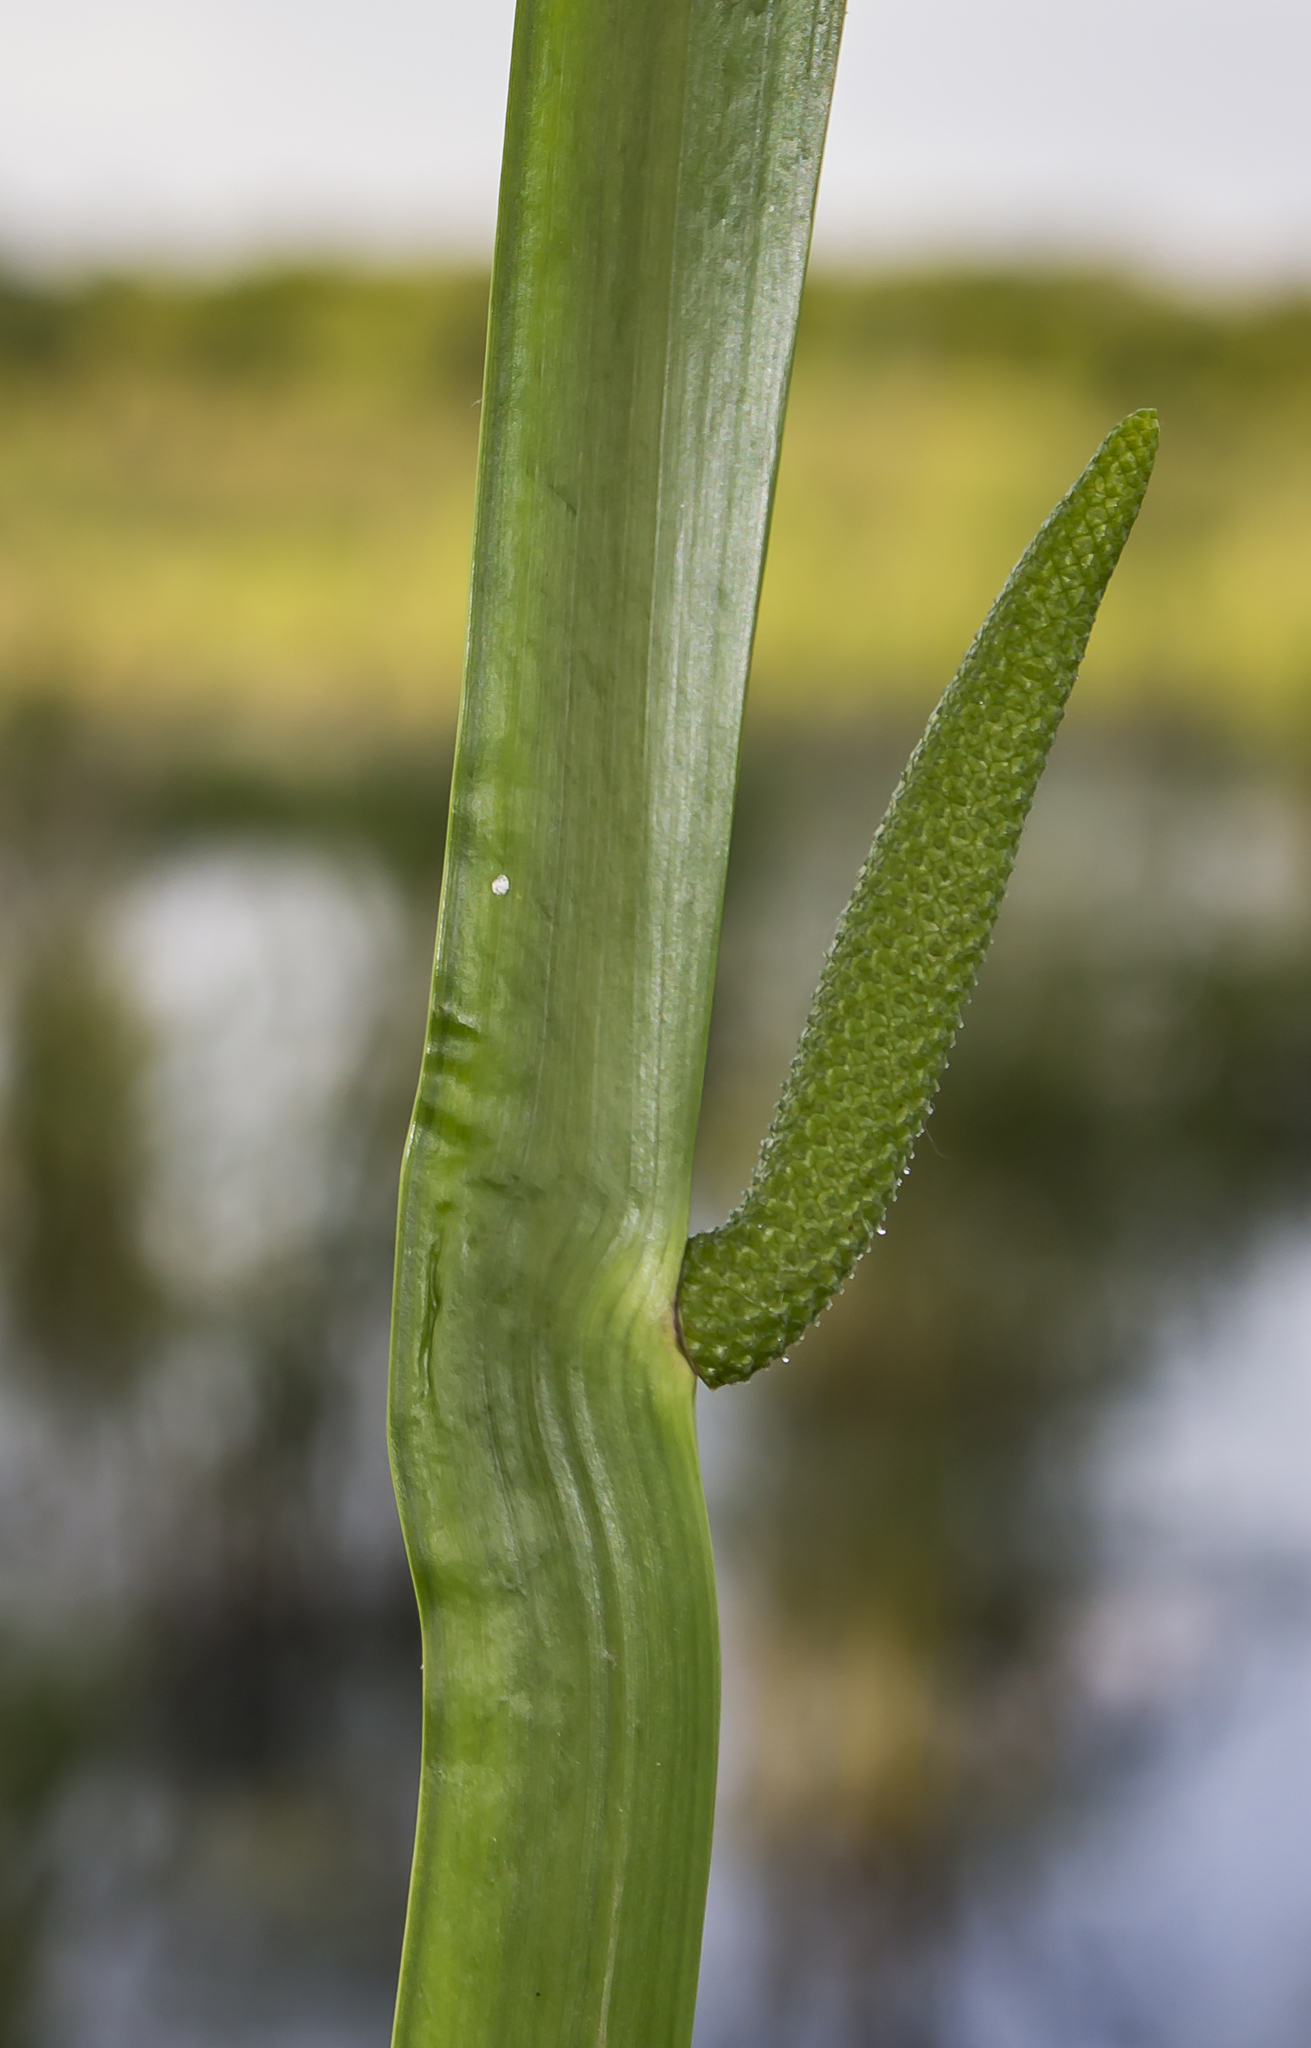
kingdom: Plantae
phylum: Tracheophyta
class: Liliopsida
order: Acorales
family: Acoraceae
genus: Acorus
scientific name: Acorus calamus
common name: Sweet-flag
